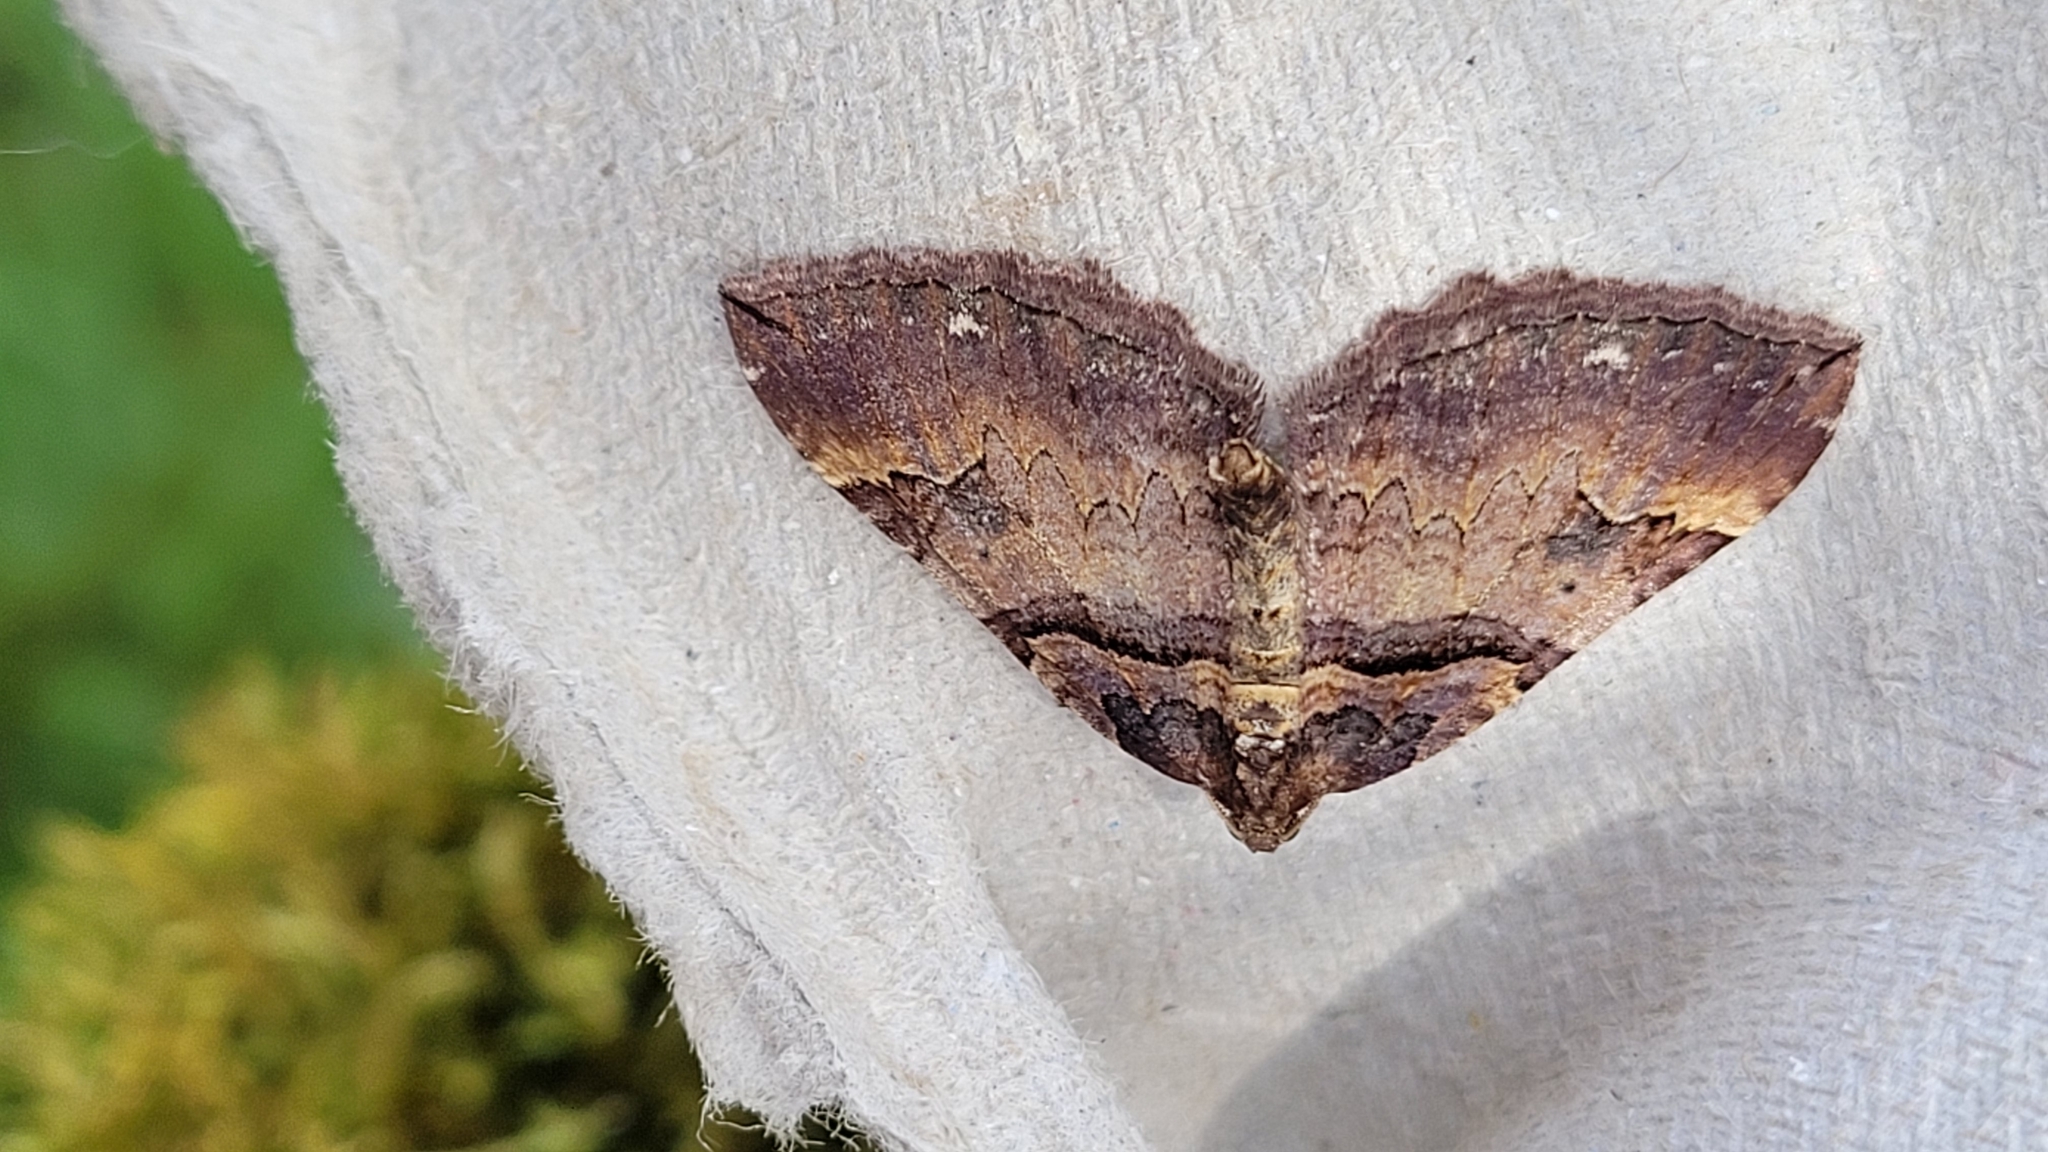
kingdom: Animalia
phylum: Arthropoda
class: Insecta
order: Lepidoptera
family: Geometridae
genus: Anticlea
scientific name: Anticlea badiata
